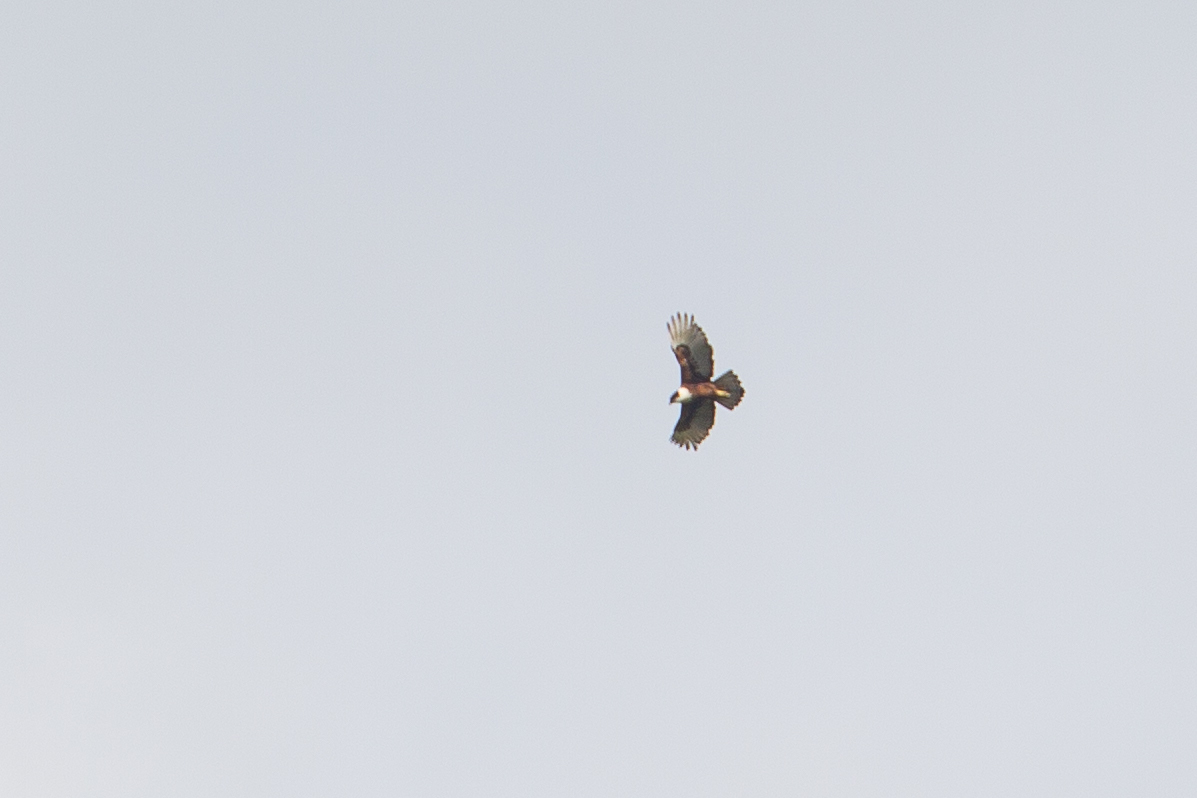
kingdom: Animalia
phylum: Chordata
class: Aves
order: Accipitriformes
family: Accipitridae
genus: Lophotriorchis
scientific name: Lophotriorchis kienerii
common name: Rufous-bellied eagle
